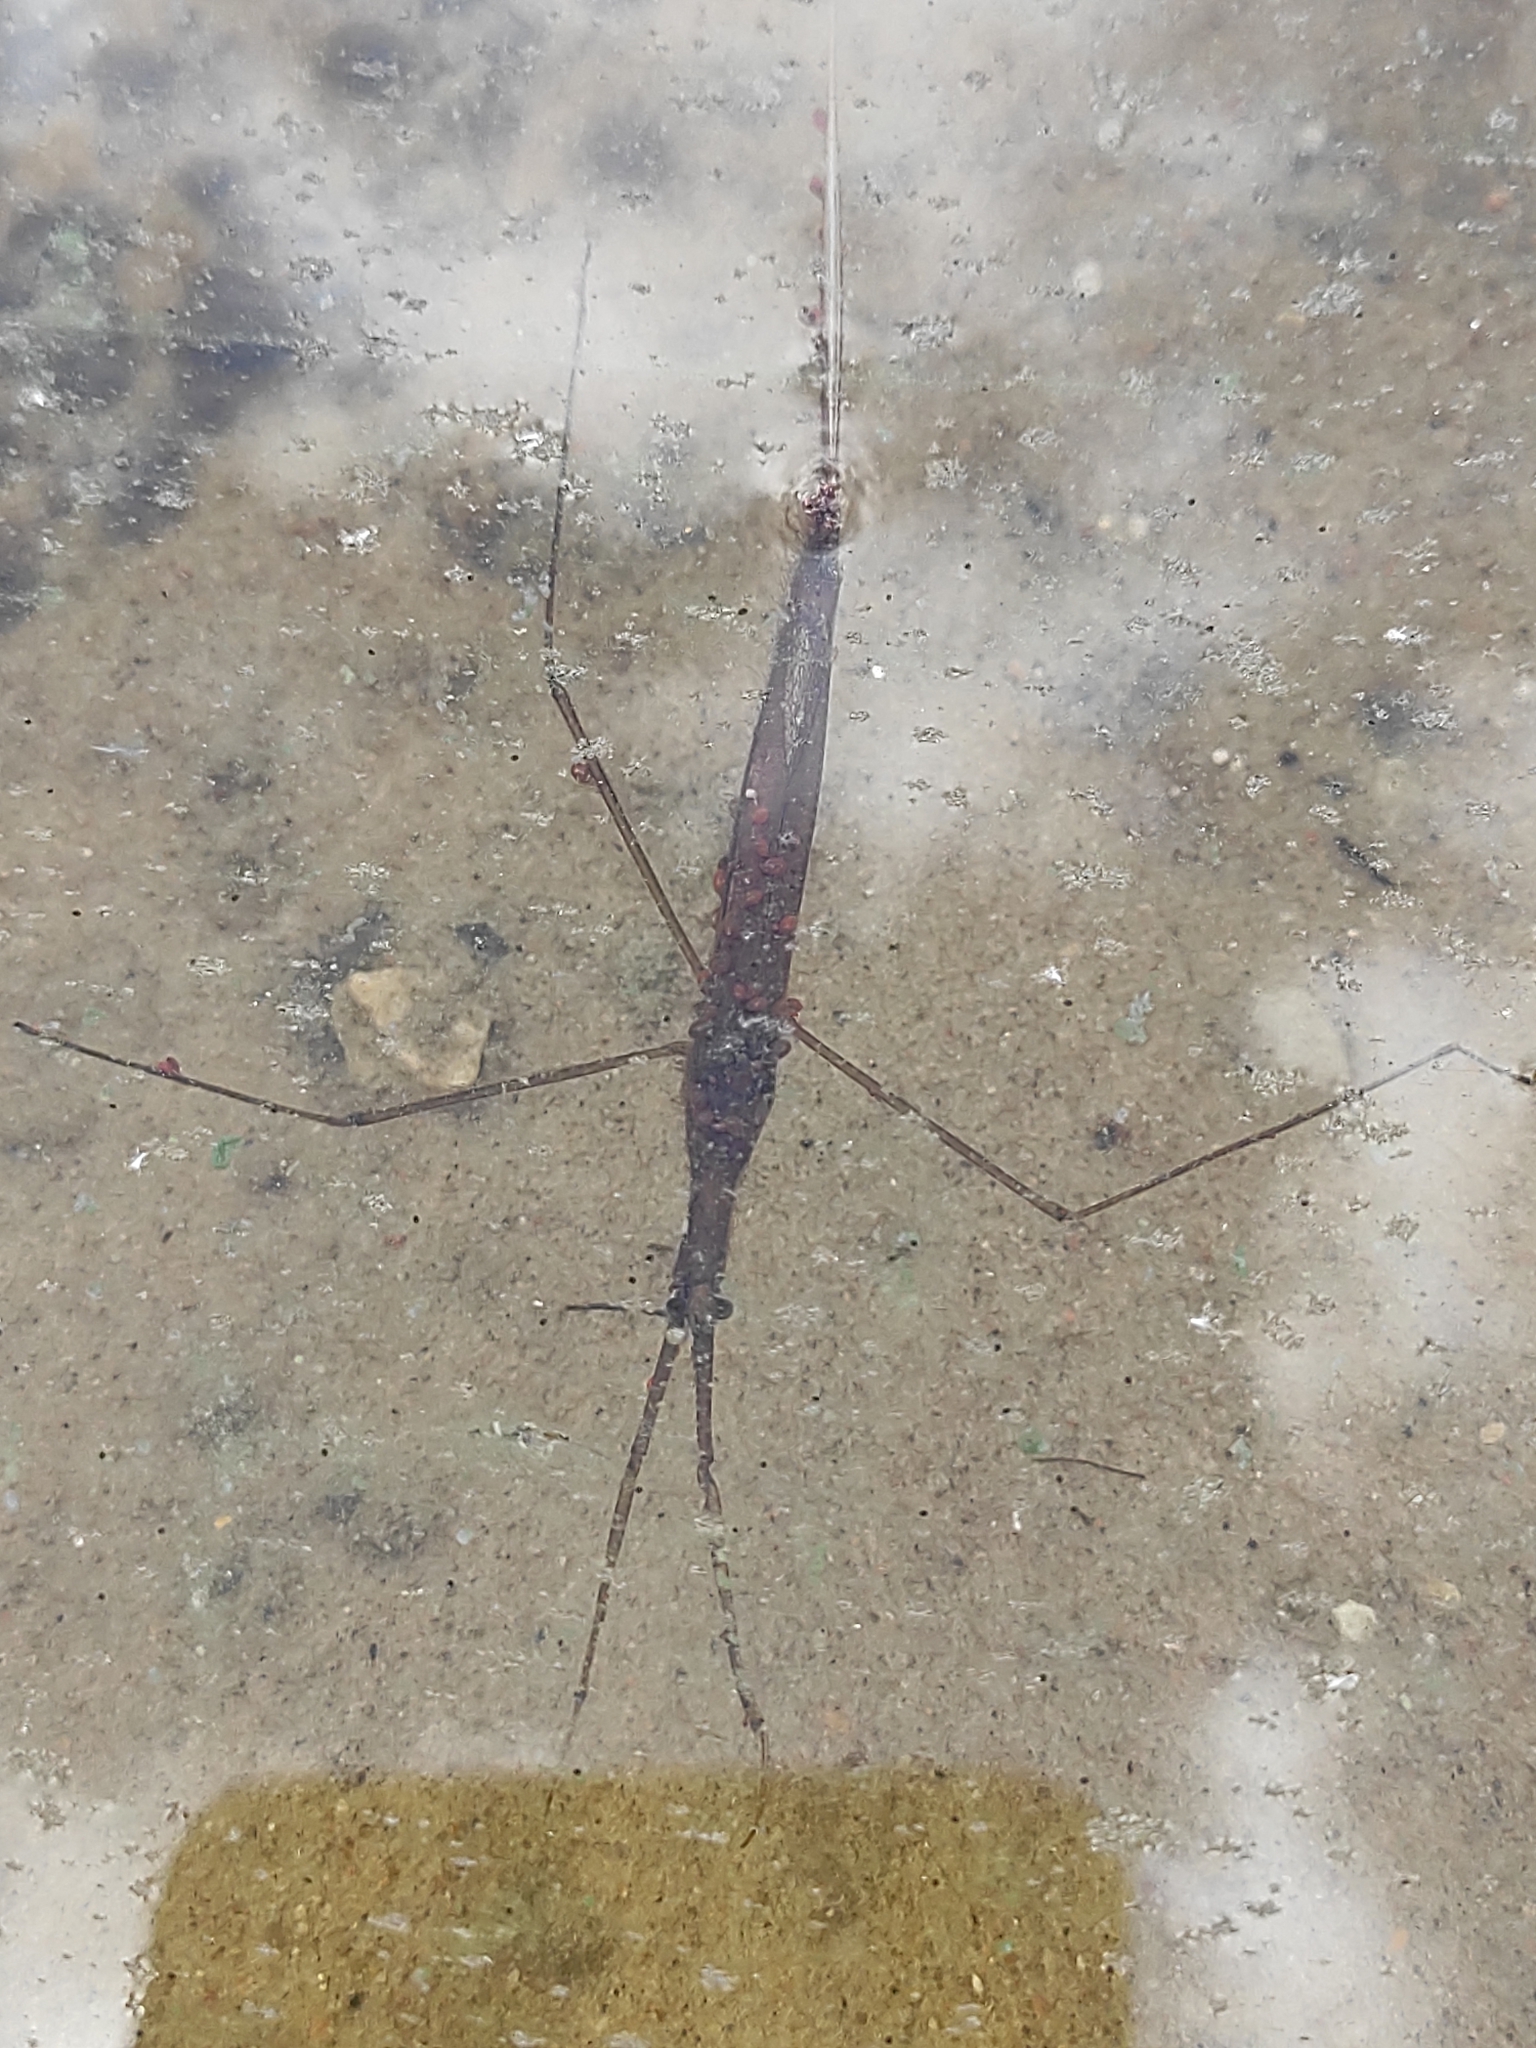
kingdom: Animalia
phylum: Arthropoda
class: Insecta
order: Hemiptera
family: Nepidae
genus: Ranatra
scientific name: Ranatra linearis
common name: Water stick insect
